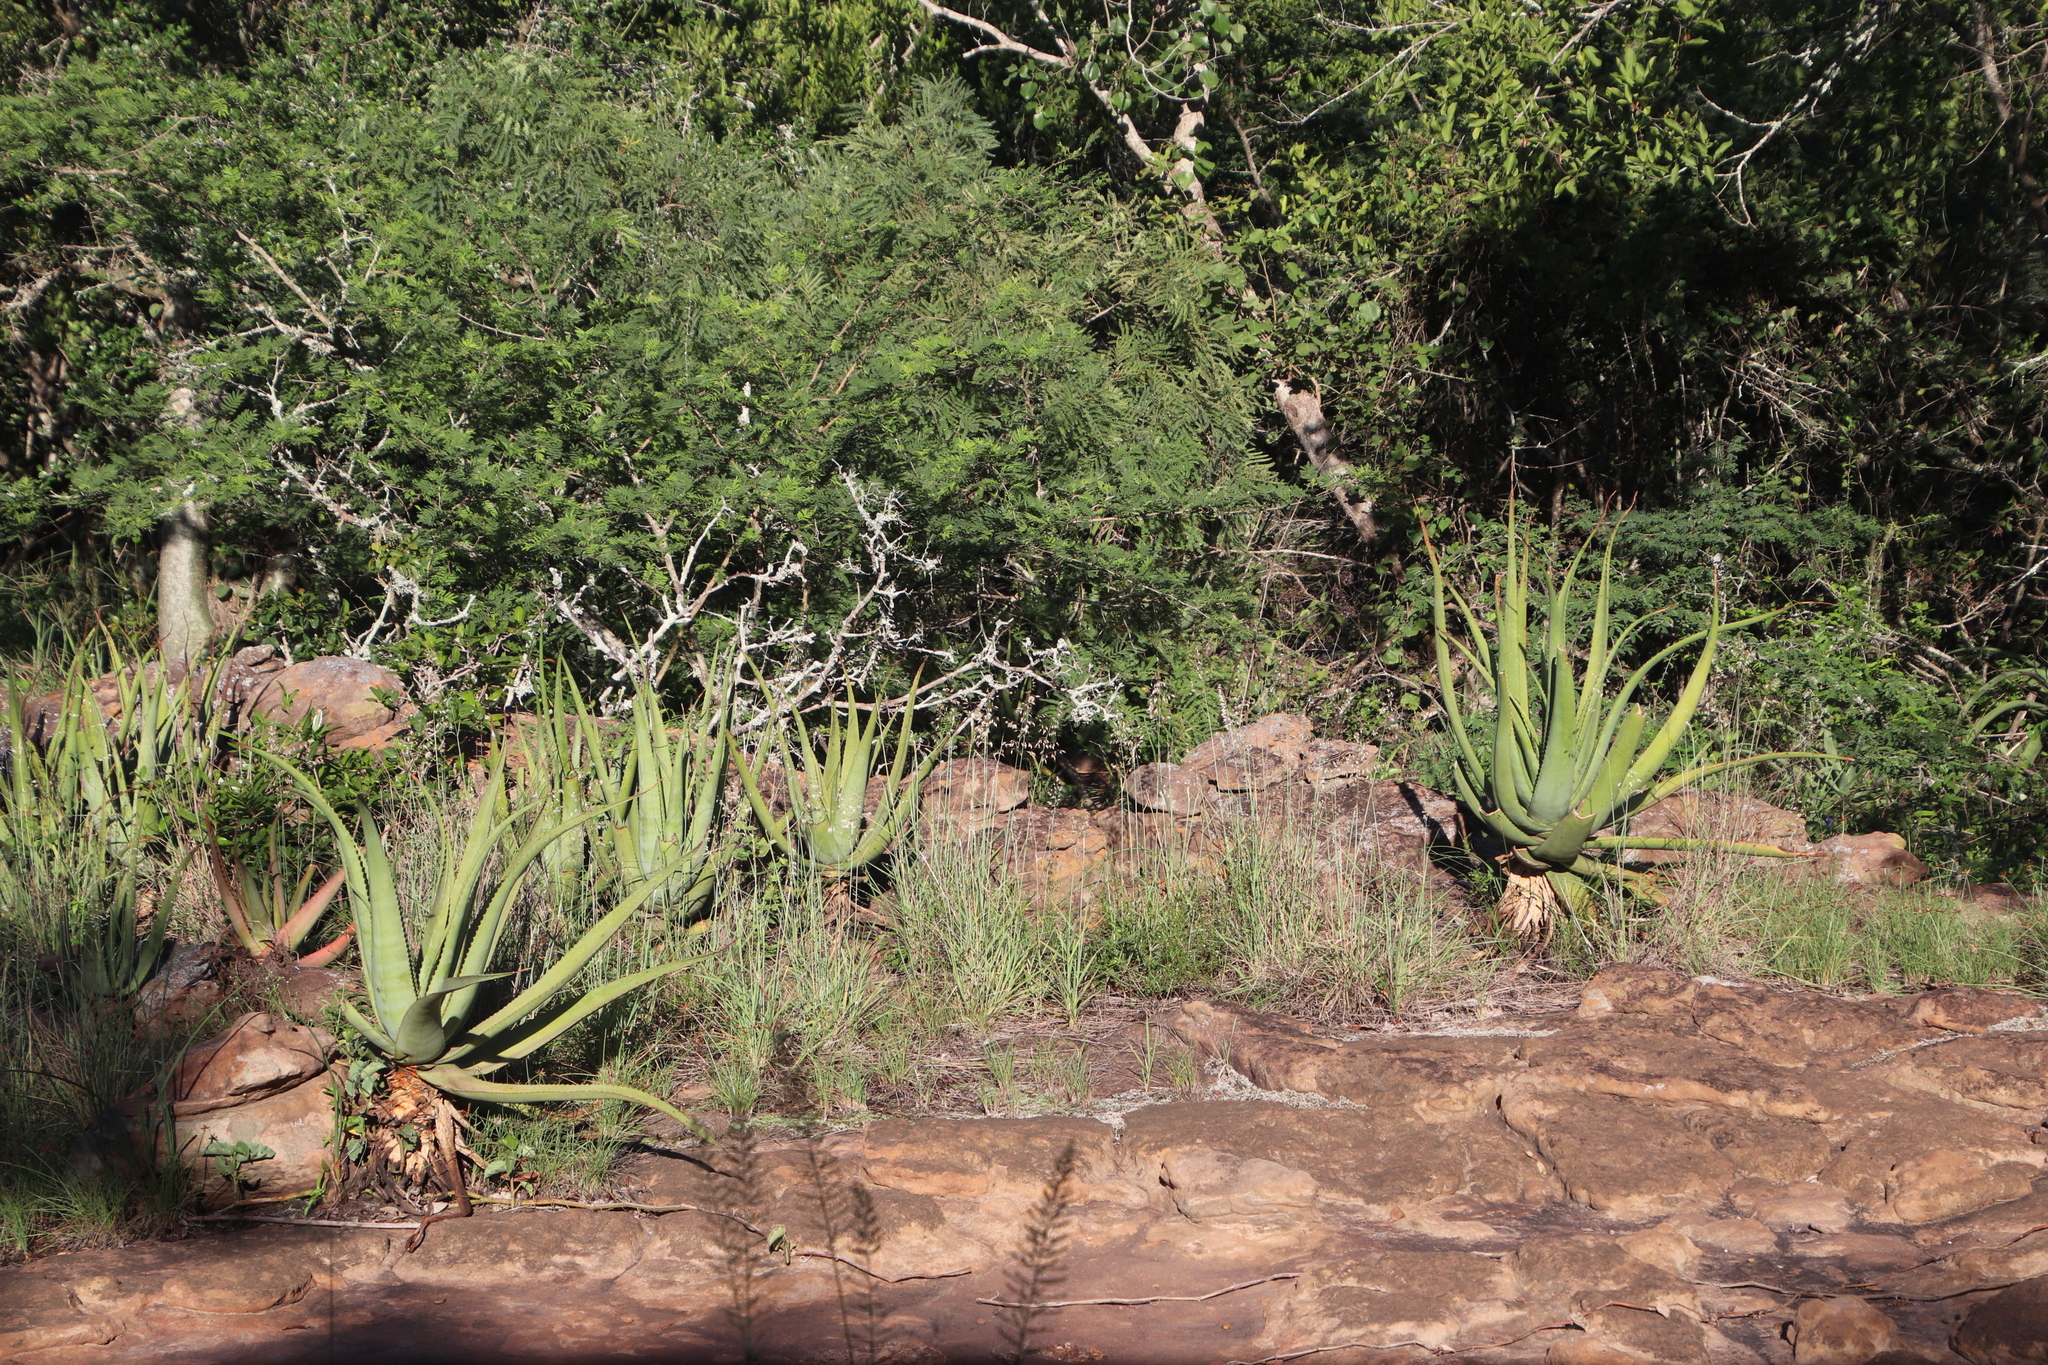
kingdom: Plantae
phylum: Tracheophyta
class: Liliopsida
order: Asparagales
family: Asphodelaceae
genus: Aloe
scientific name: Aloe spicata
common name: Gazaland aloe
